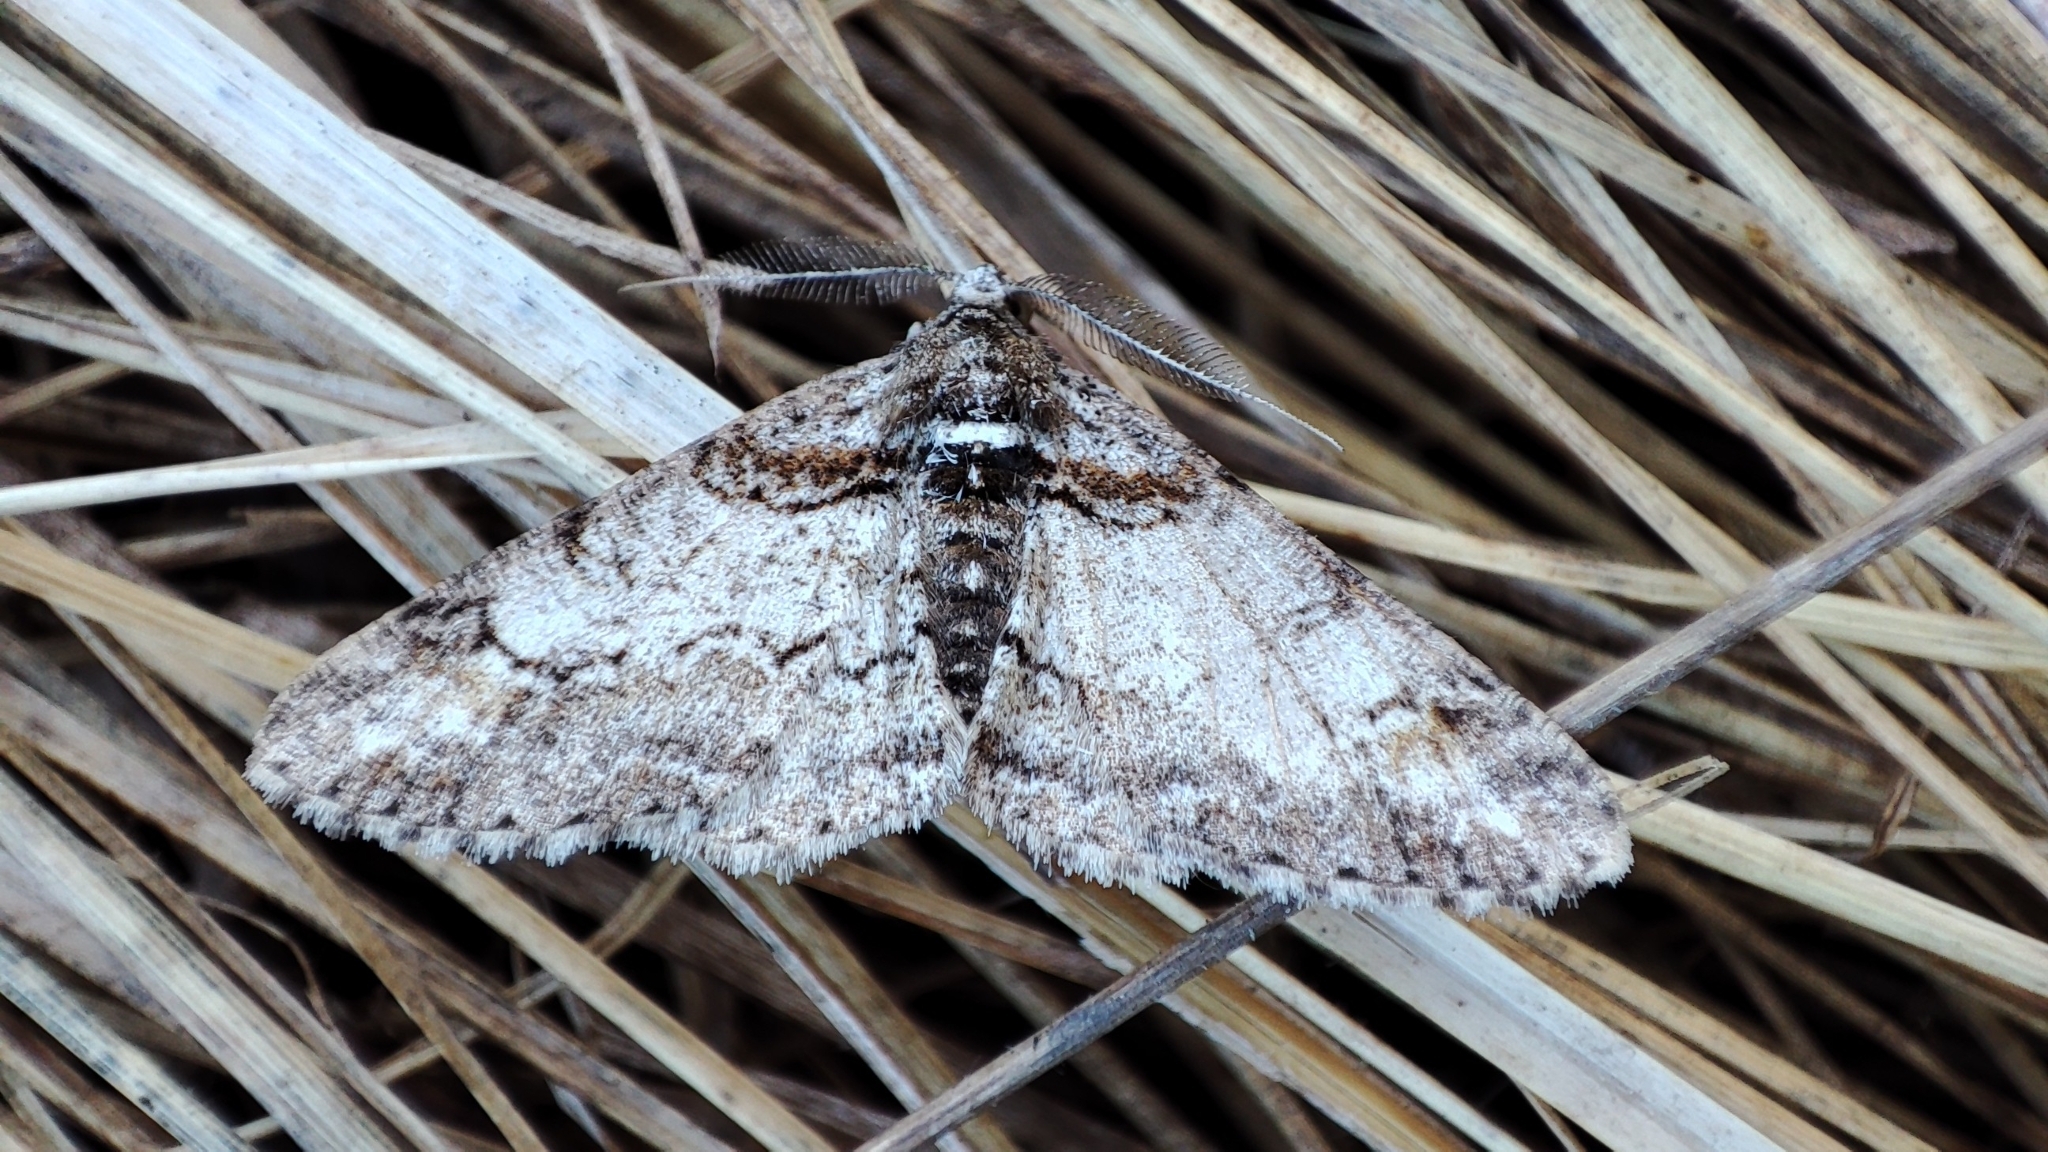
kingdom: Animalia
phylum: Arthropoda
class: Insecta
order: Lepidoptera
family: Geometridae
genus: Cleora
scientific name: Cleora cinctaria
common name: Ringed carpet
